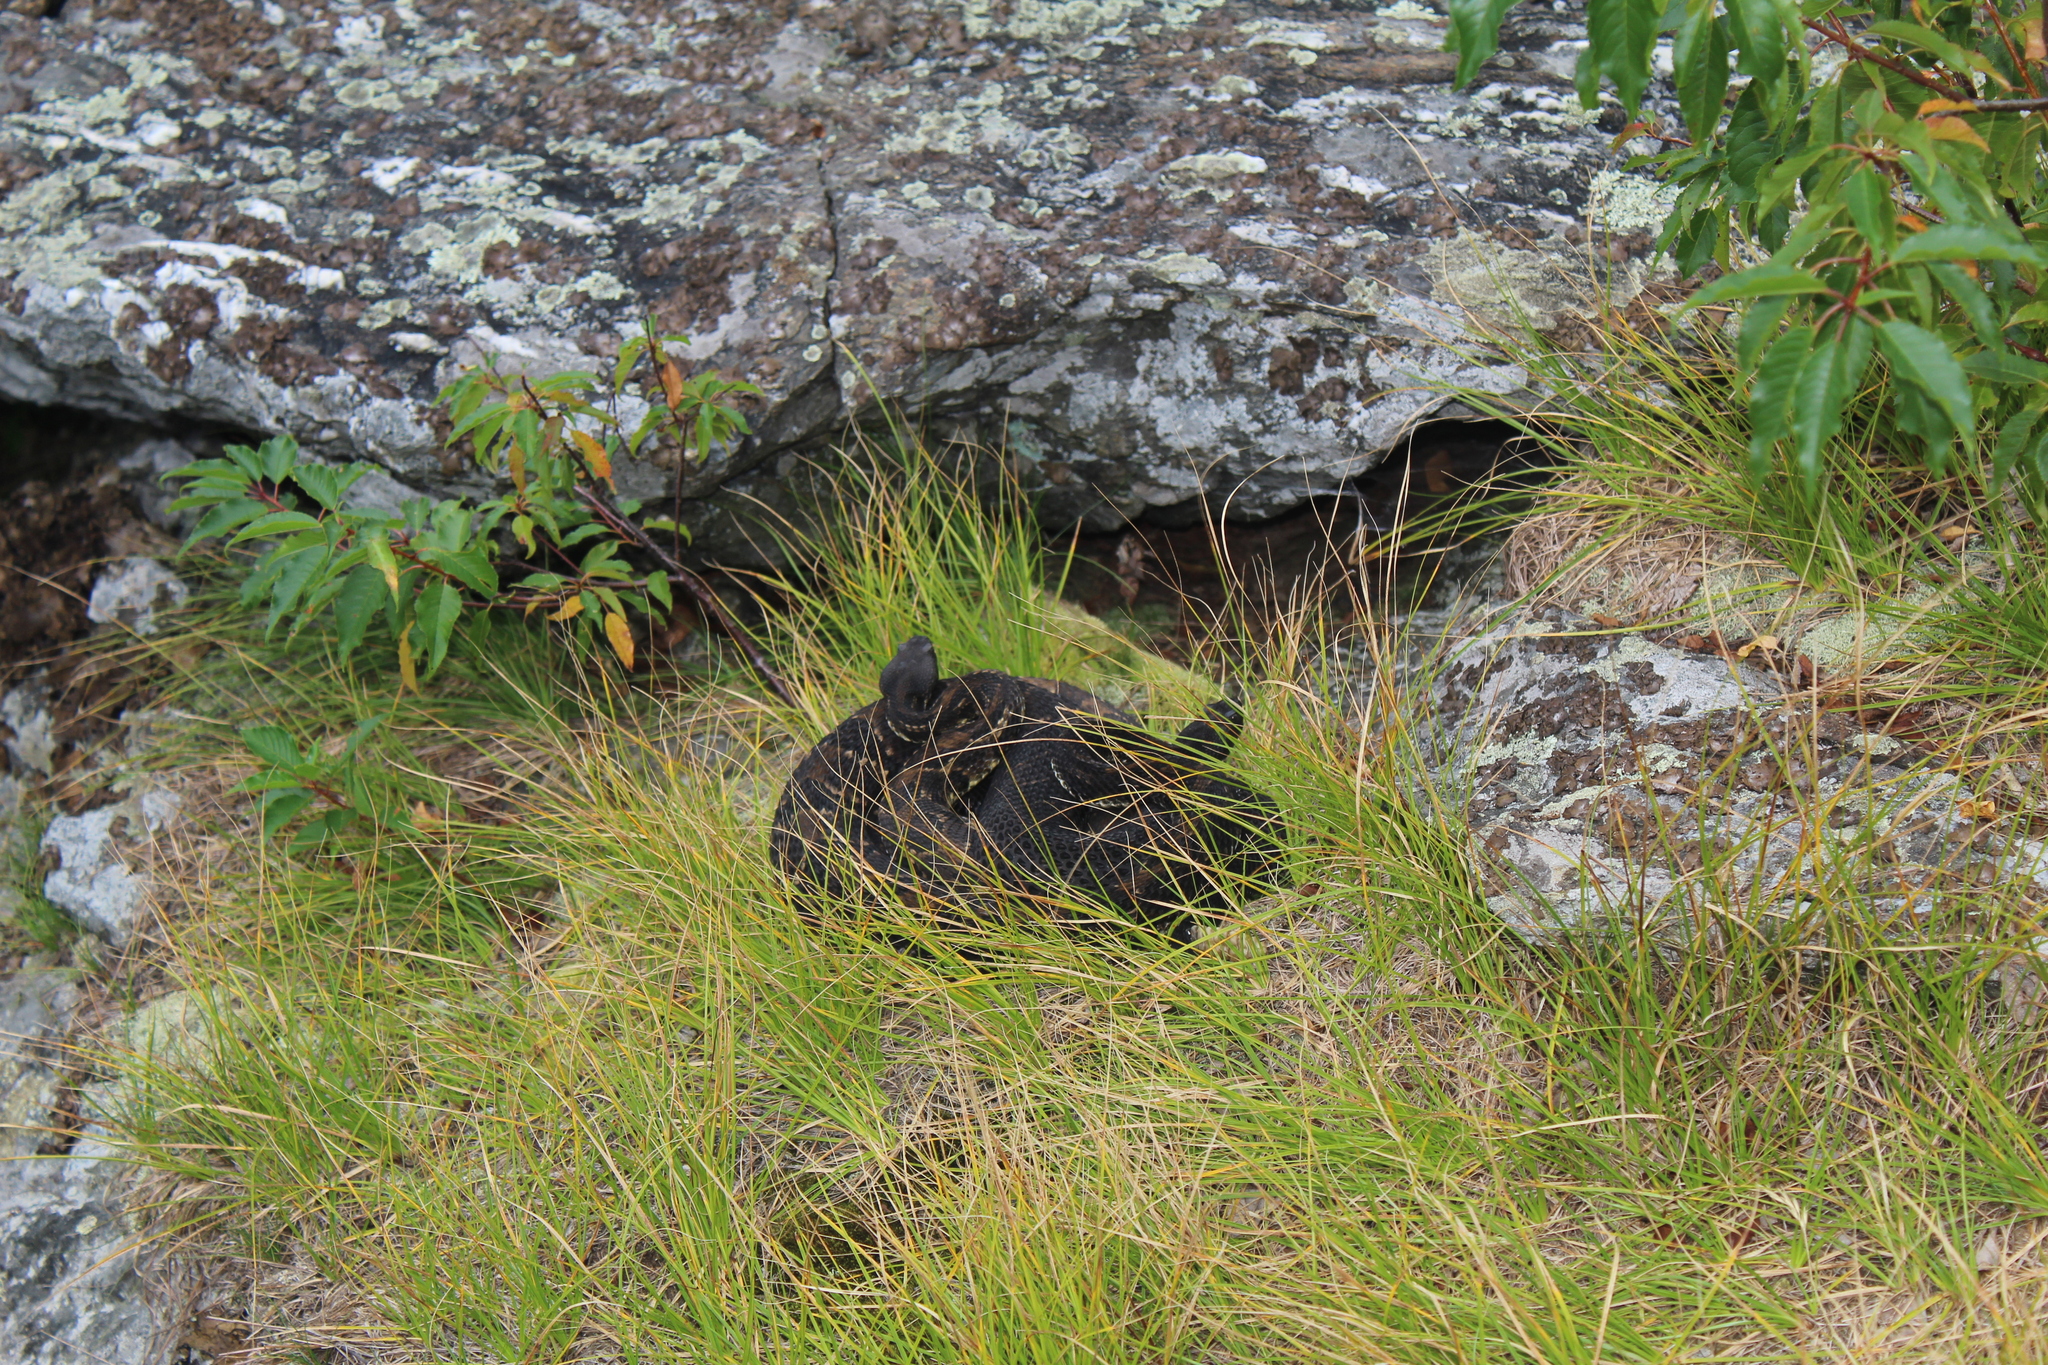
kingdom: Animalia
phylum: Chordata
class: Squamata
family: Viperidae
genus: Crotalus
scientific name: Crotalus horridus
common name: Timber rattlesnake
